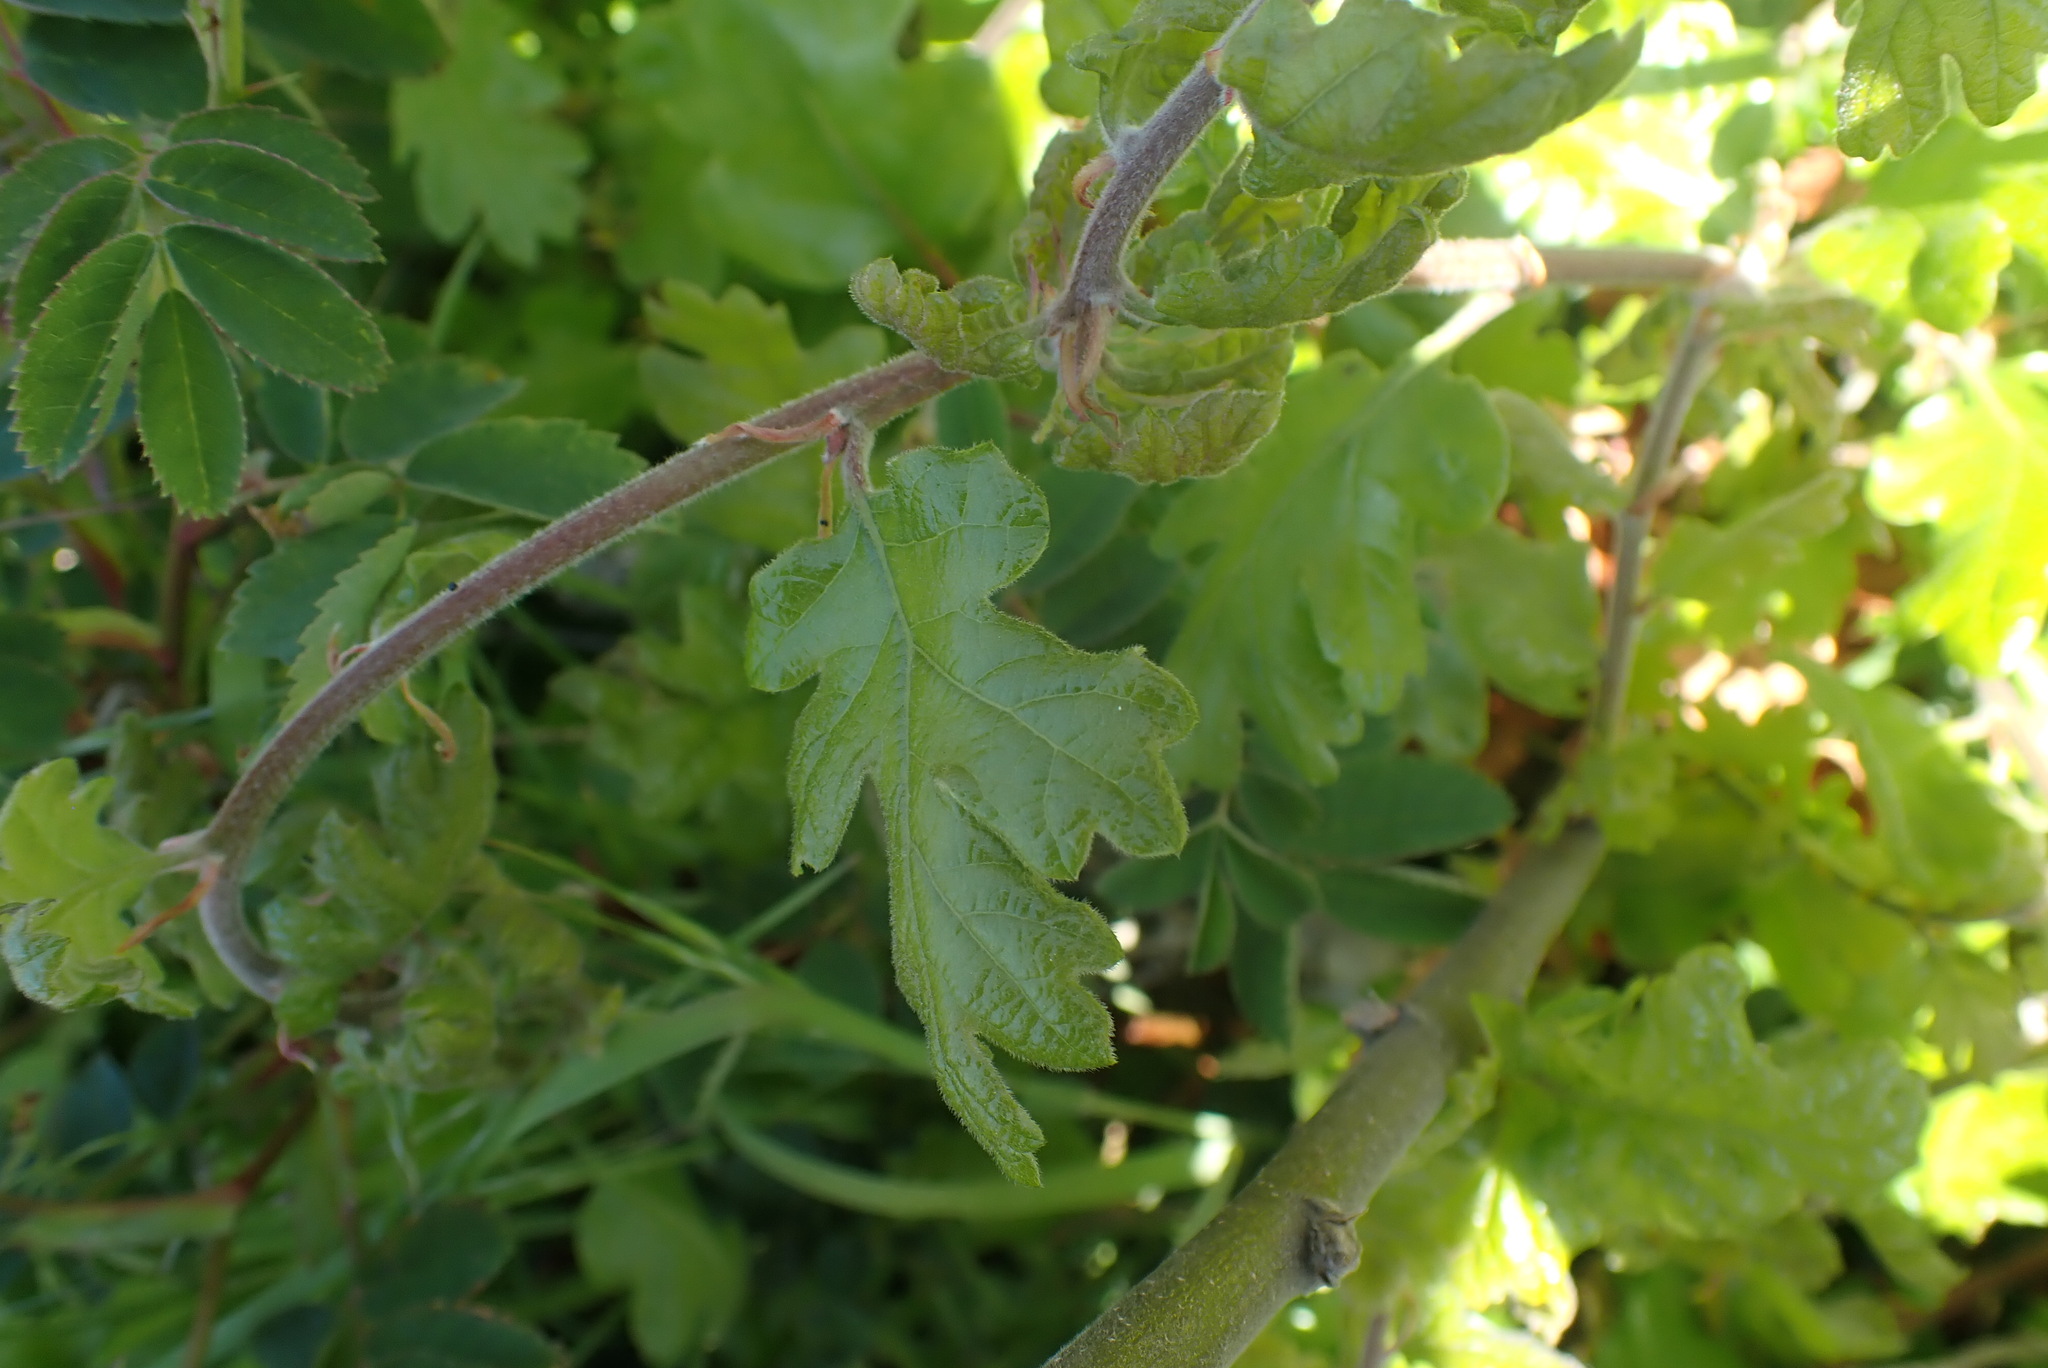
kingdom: Plantae
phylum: Tracheophyta
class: Magnoliopsida
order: Fagales
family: Fagaceae
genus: Quercus
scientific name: Quercus garryana
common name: Garry oak
